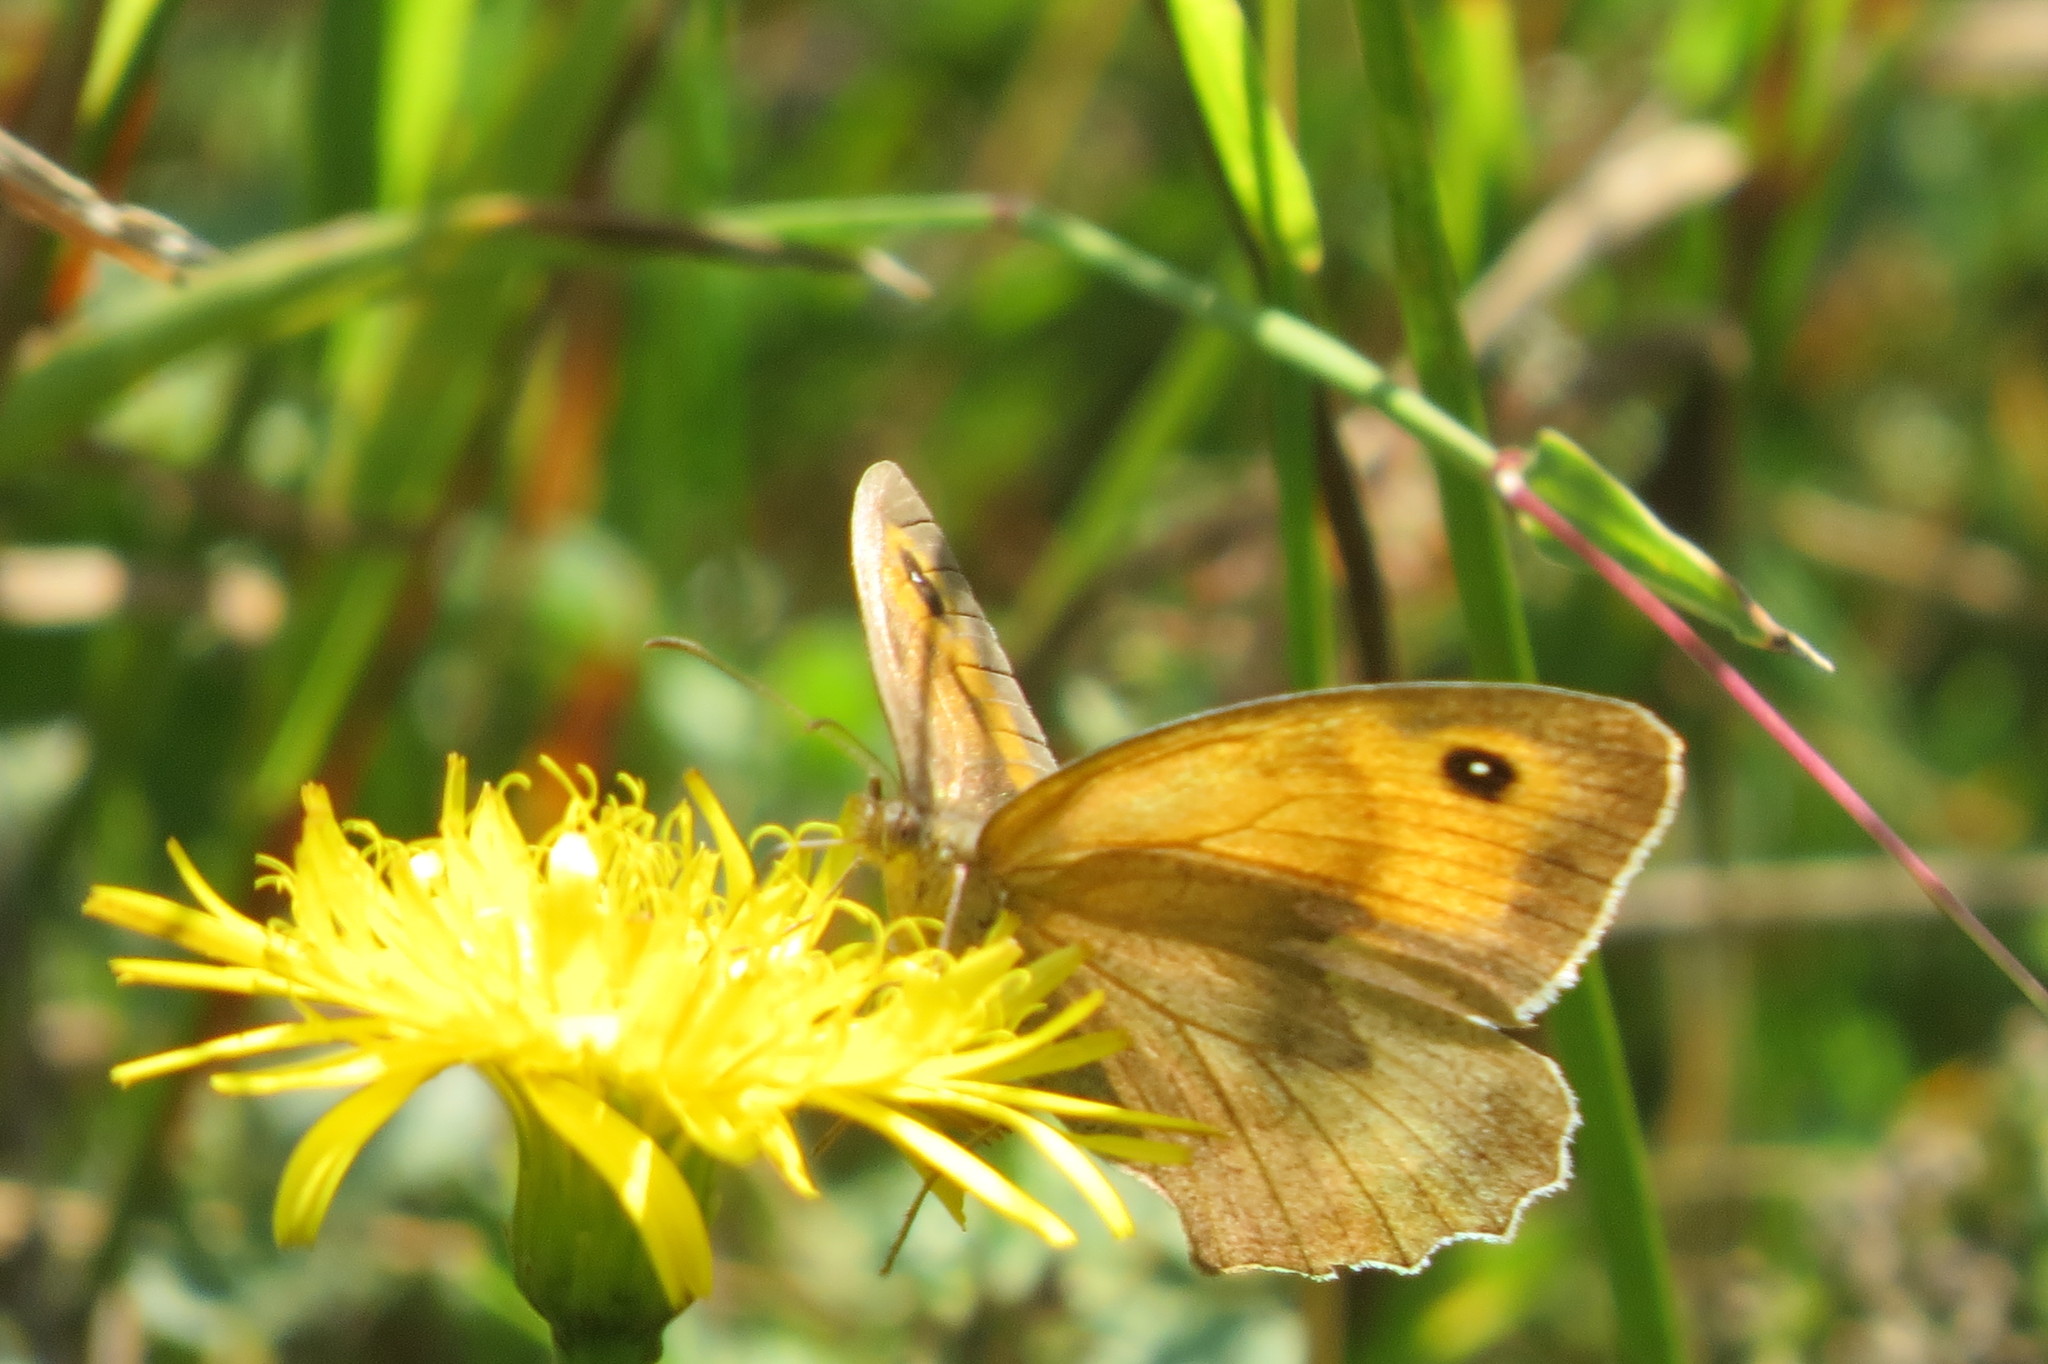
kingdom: Animalia
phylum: Arthropoda
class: Insecta
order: Lepidoptera
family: Nymphalidae
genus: Maniola
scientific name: Maniola jurtina
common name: Meadow brown
